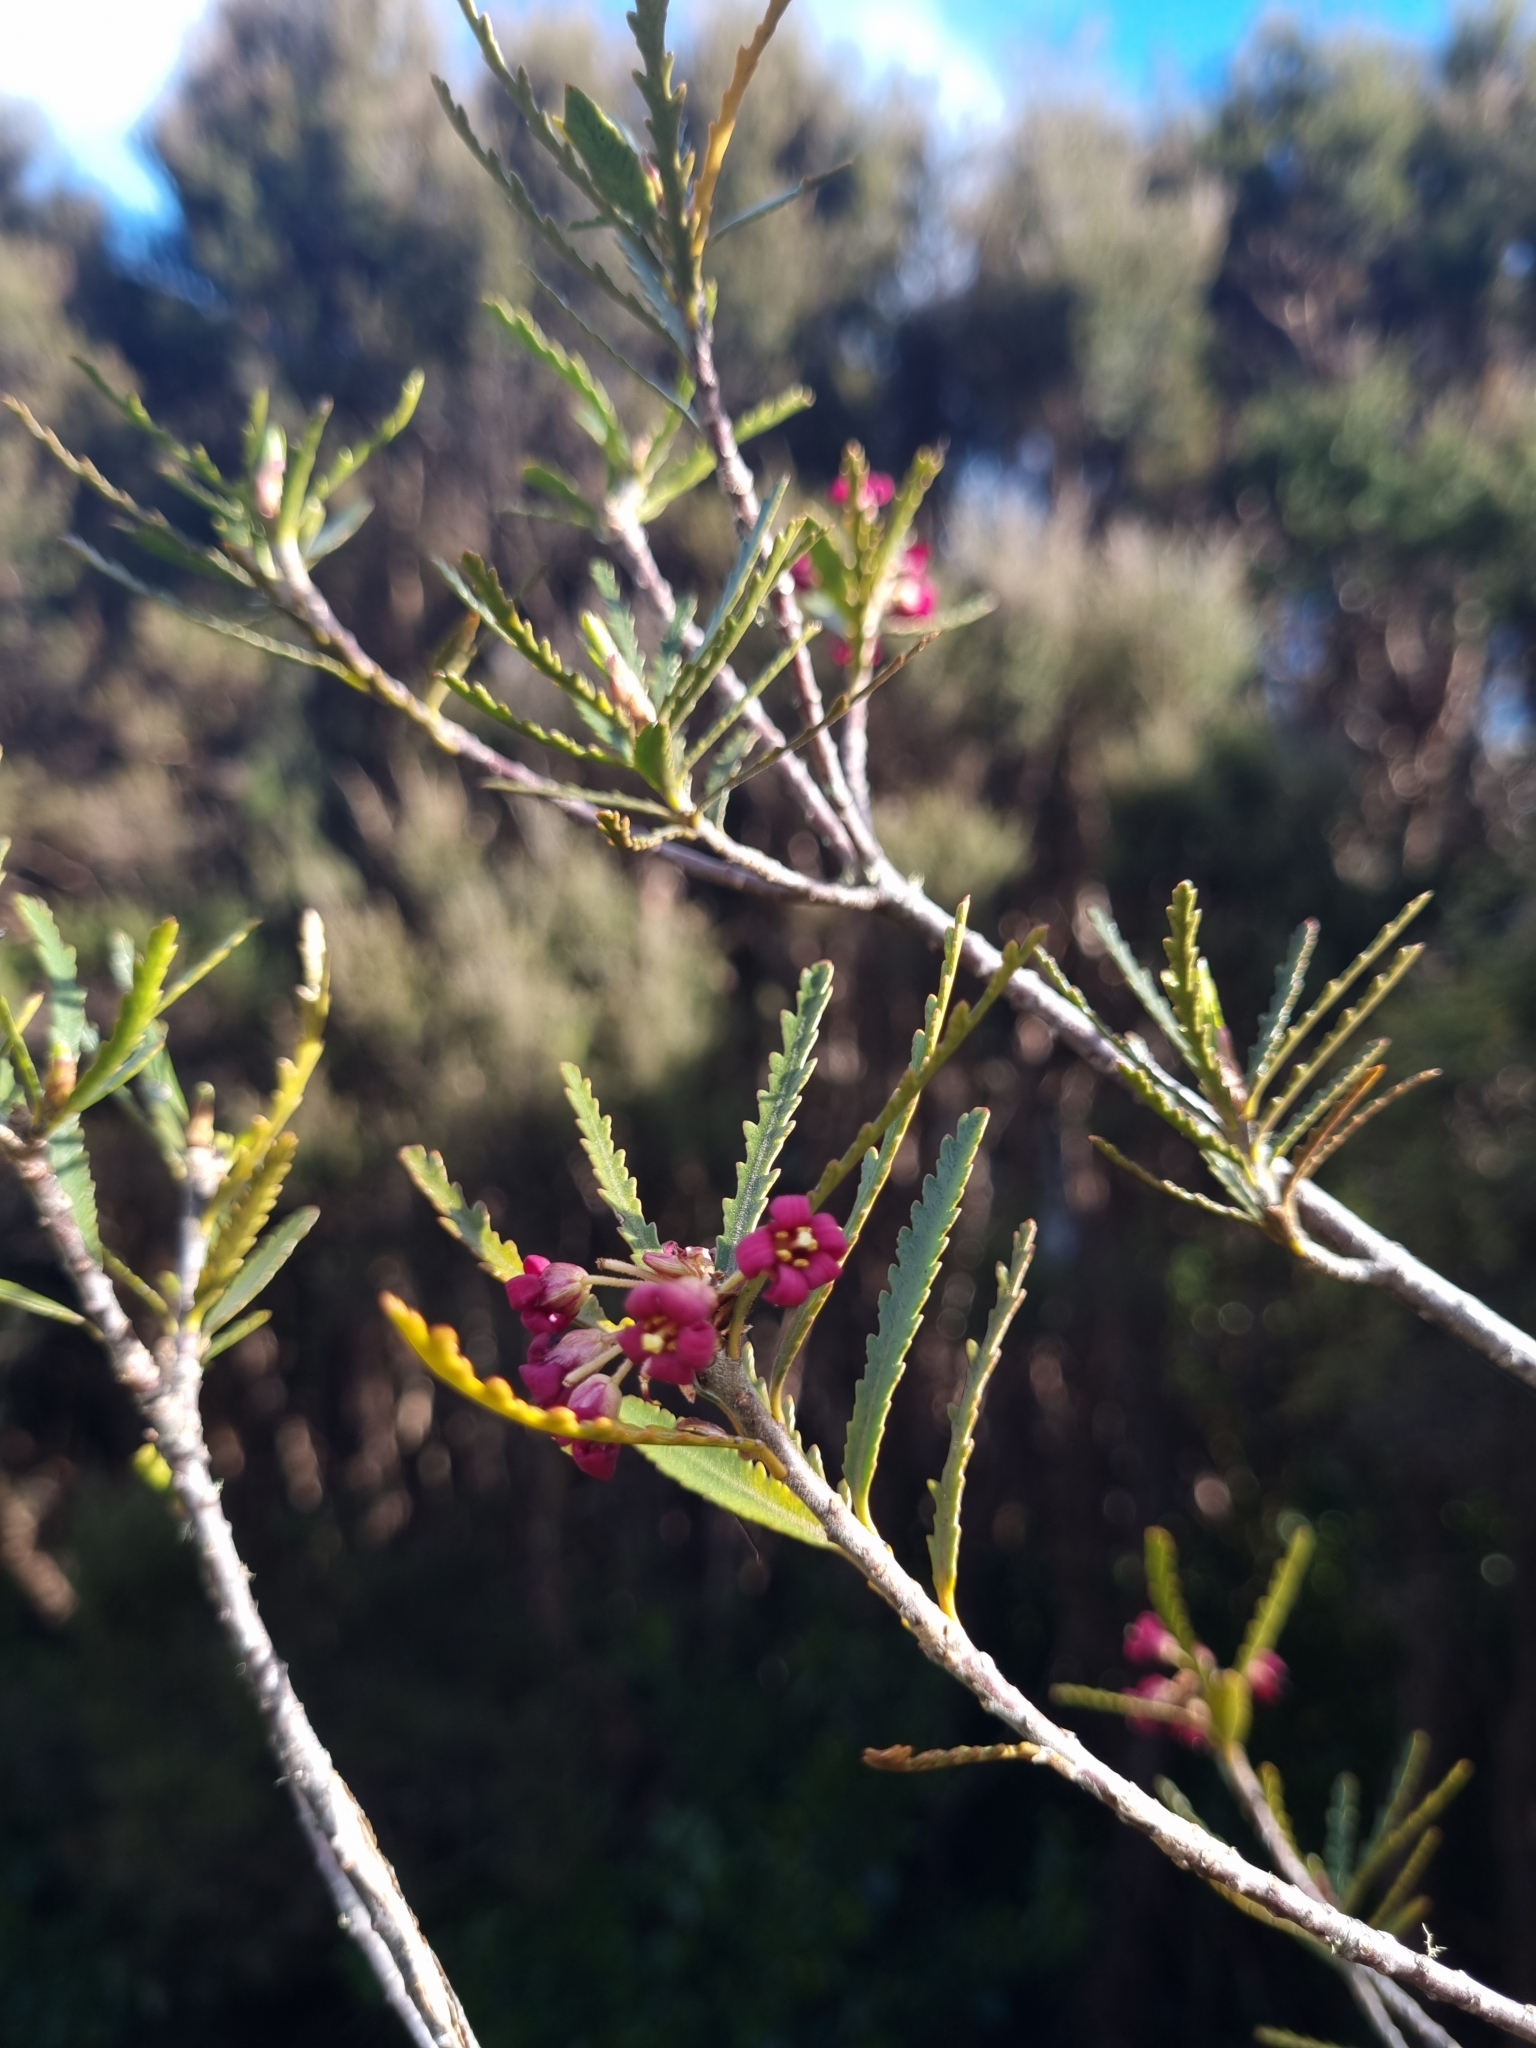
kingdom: Plantae
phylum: Tracheophyta
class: Magnoliopsida
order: Apiales
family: Pittosporaceae
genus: Pittosporum
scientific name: Pittosporum patulum
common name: Pitpat
